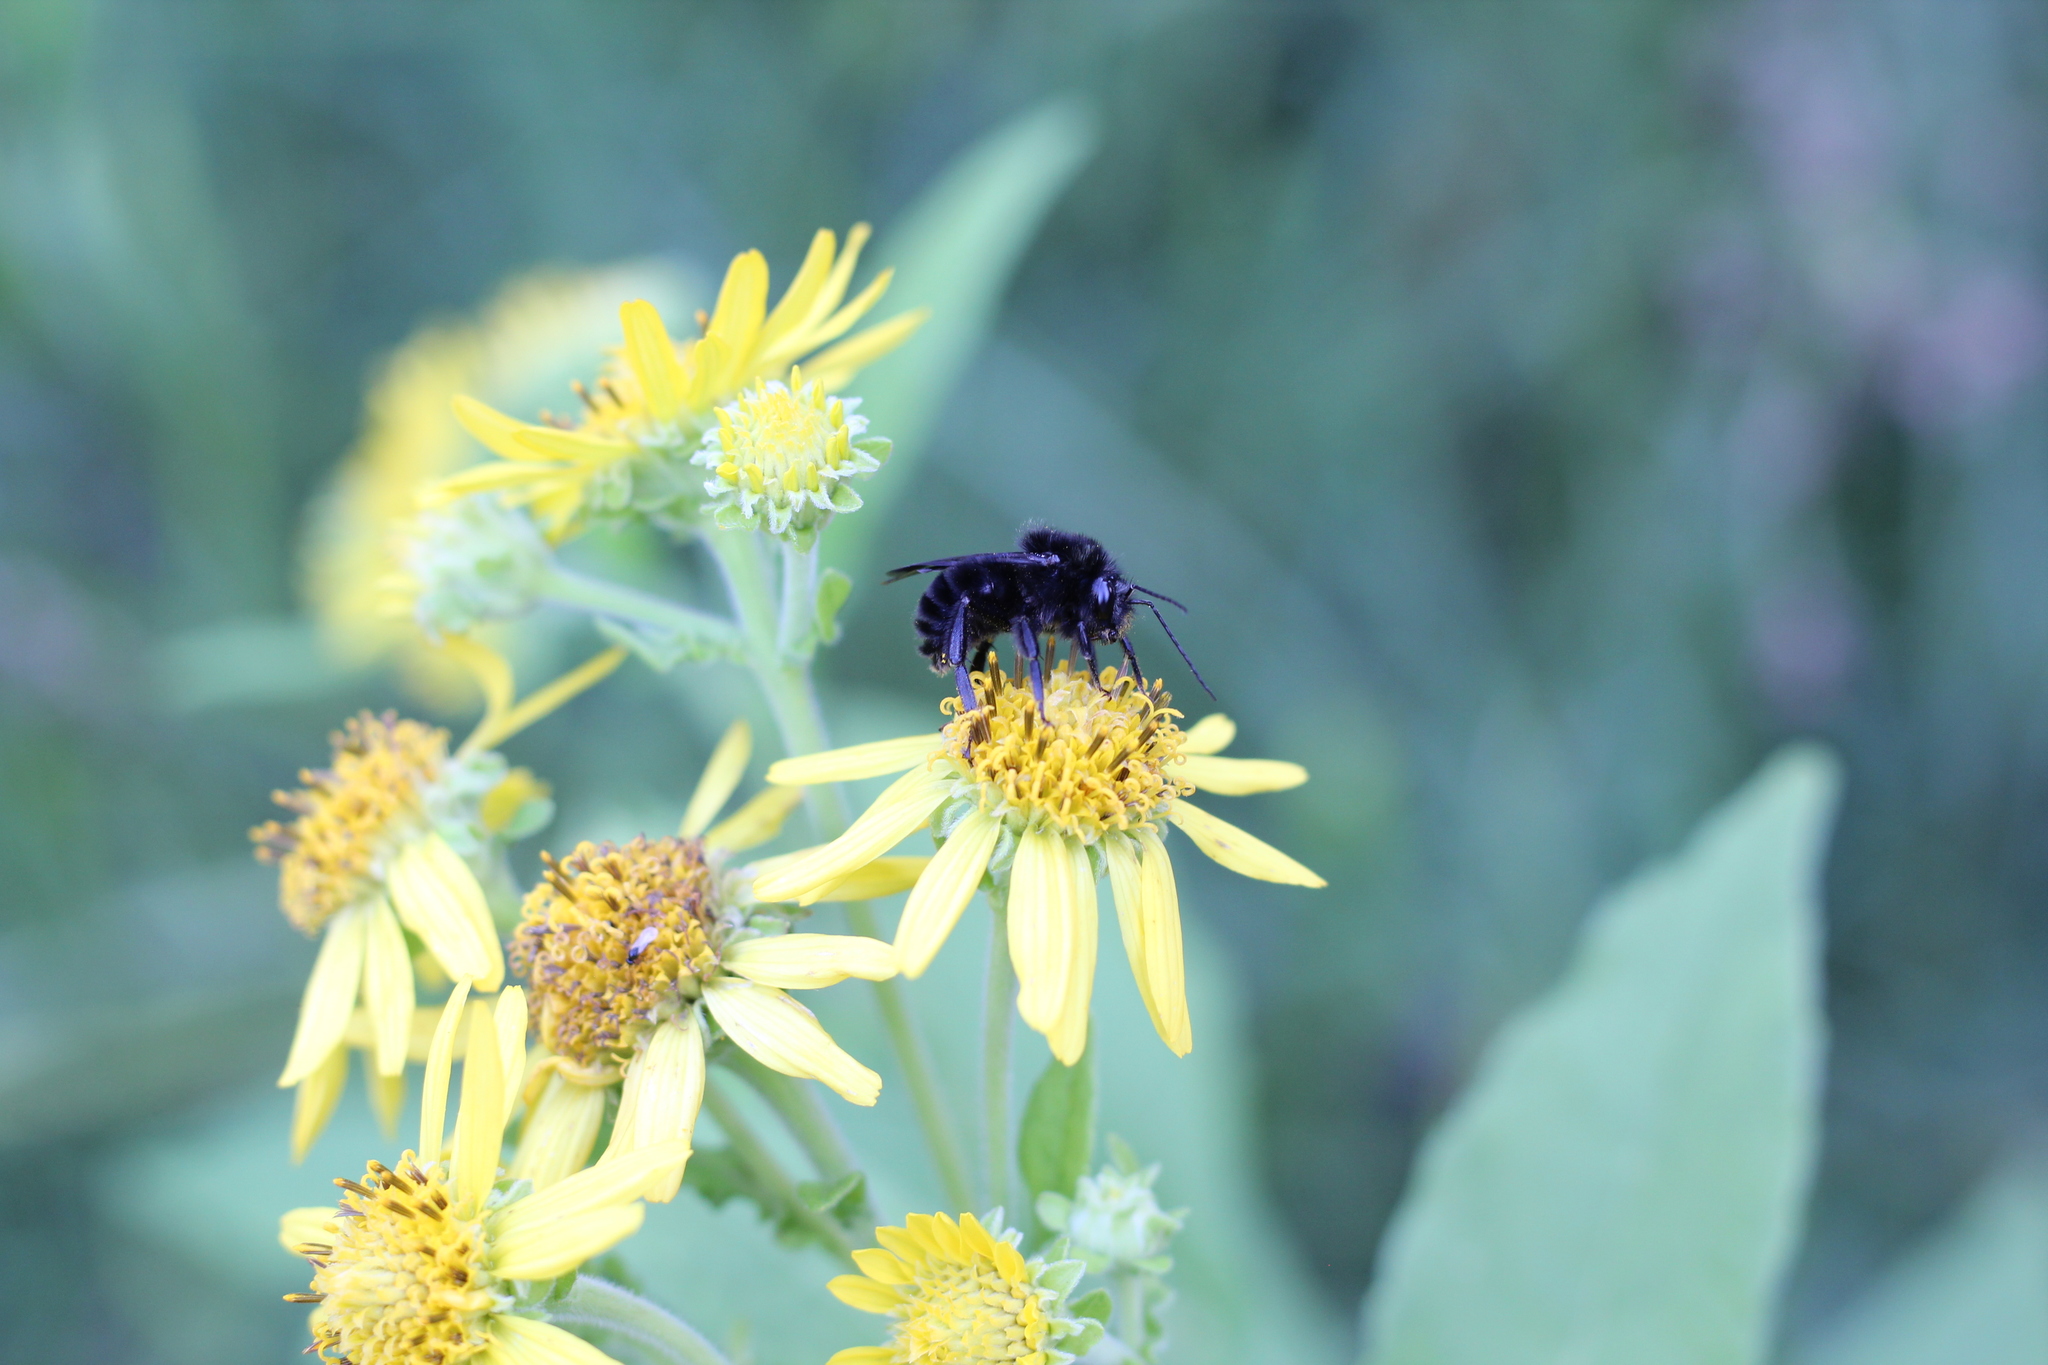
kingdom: Animalia
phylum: Arthropoda
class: Insecta
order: Hymenoptera
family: Apidae
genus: Bombus
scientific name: Bombus pauloensis
